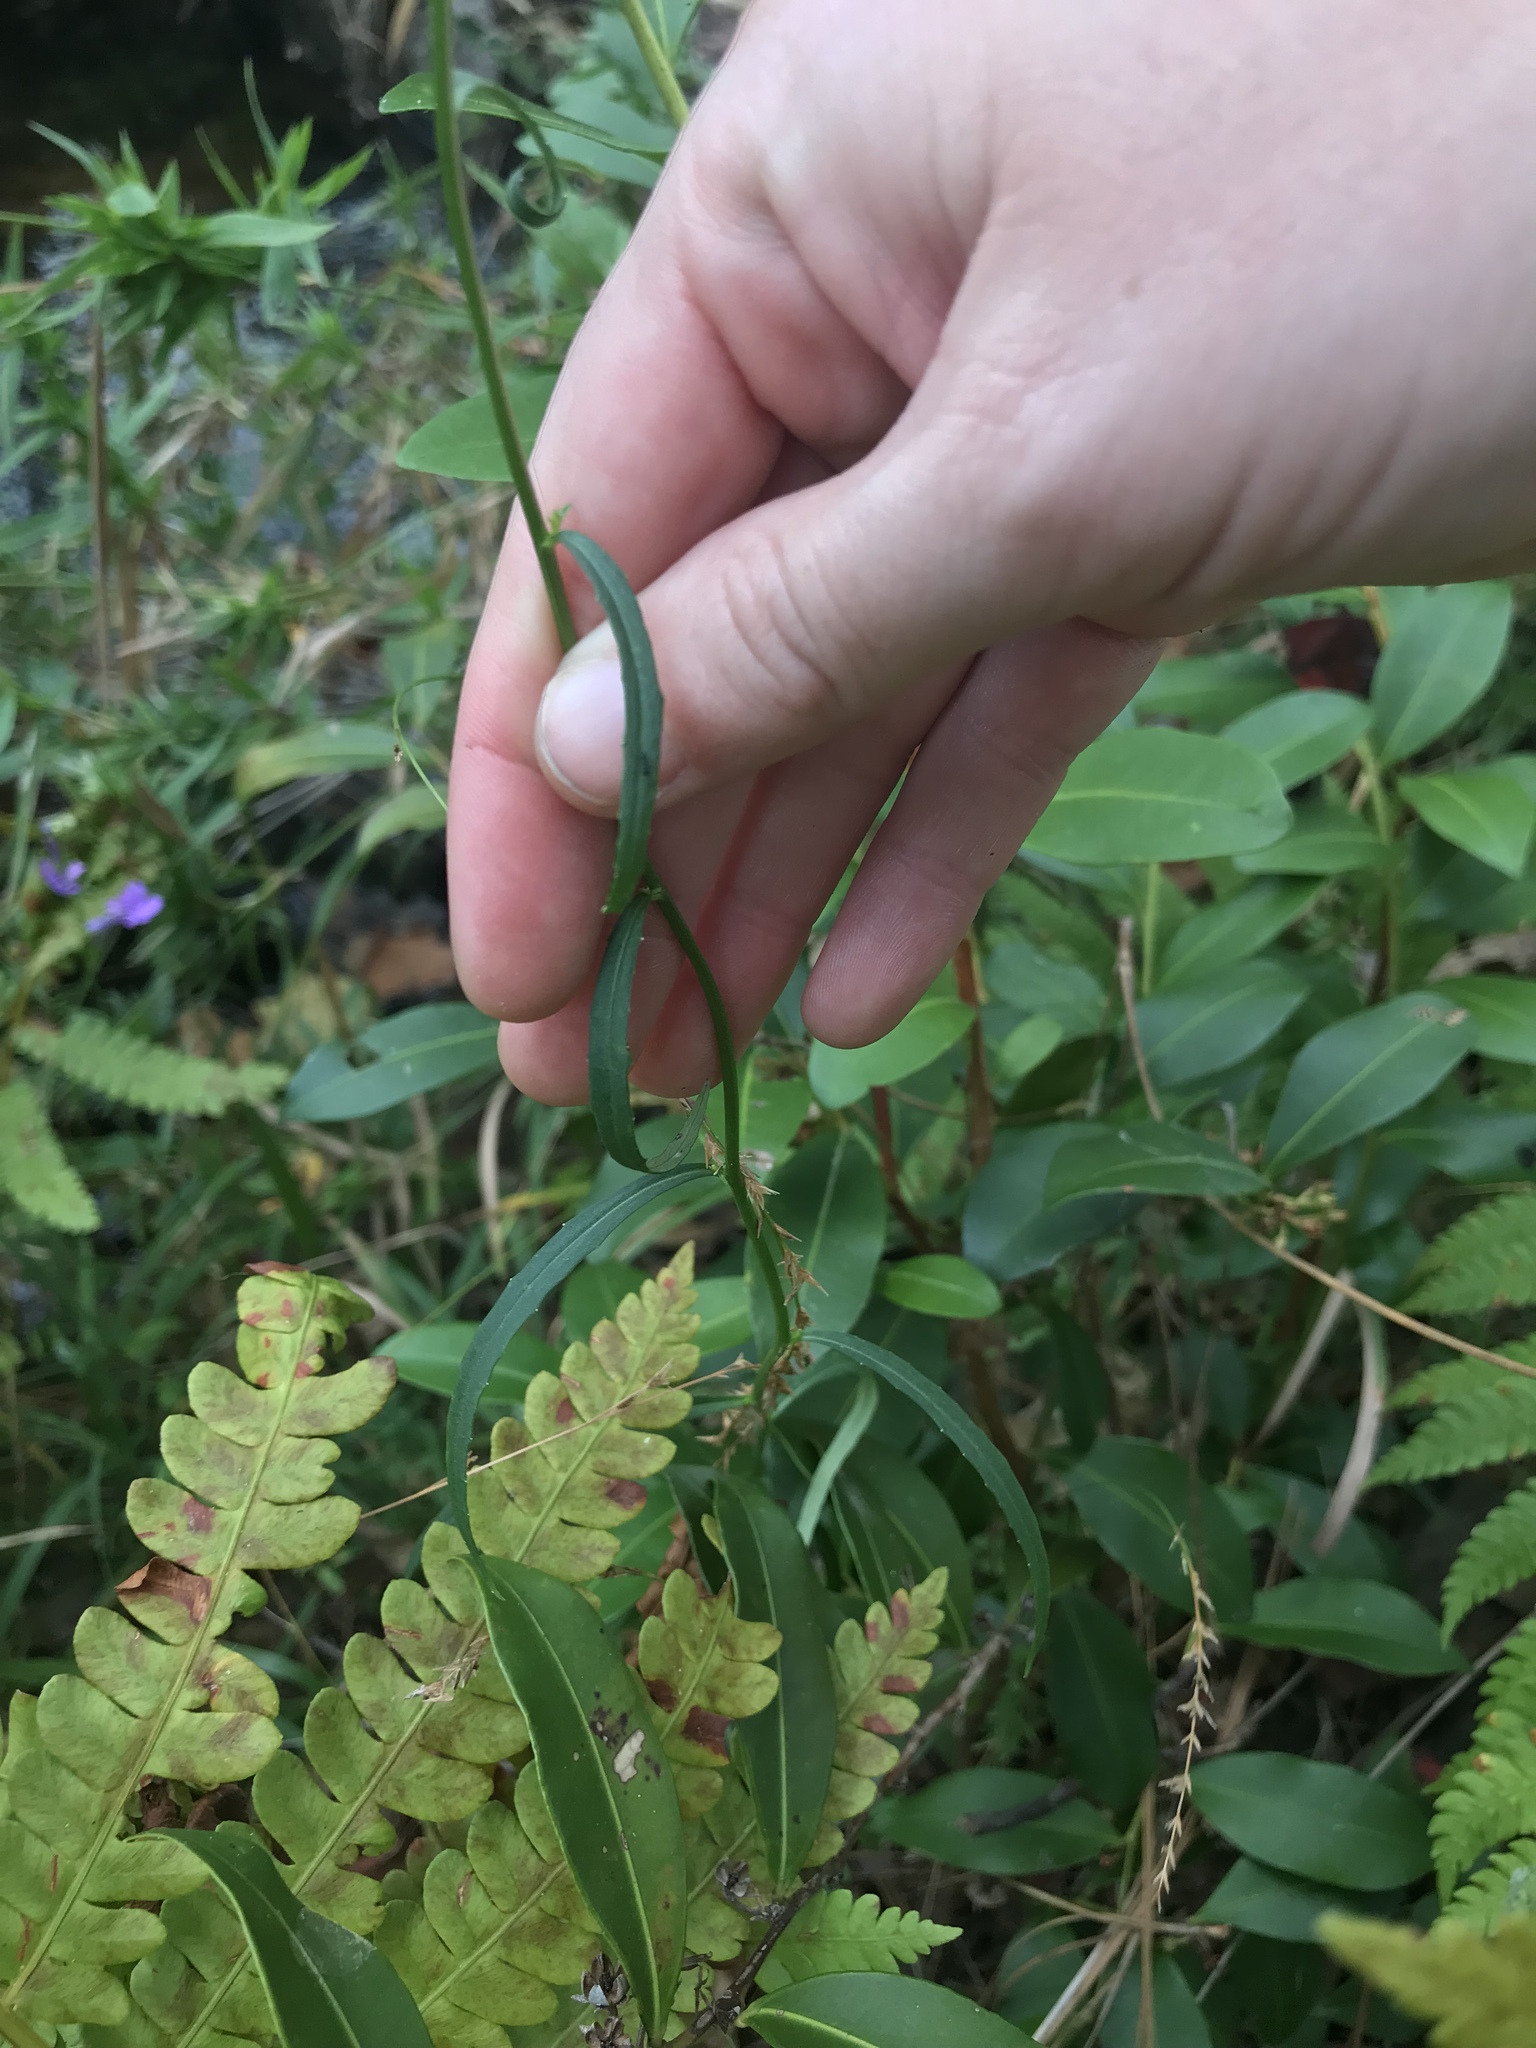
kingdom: Plantae
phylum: Tracheophyta
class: Magnoliopsida
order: Asterales
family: Campanulaceae
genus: Lobelia
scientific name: Lobelia batsonii
